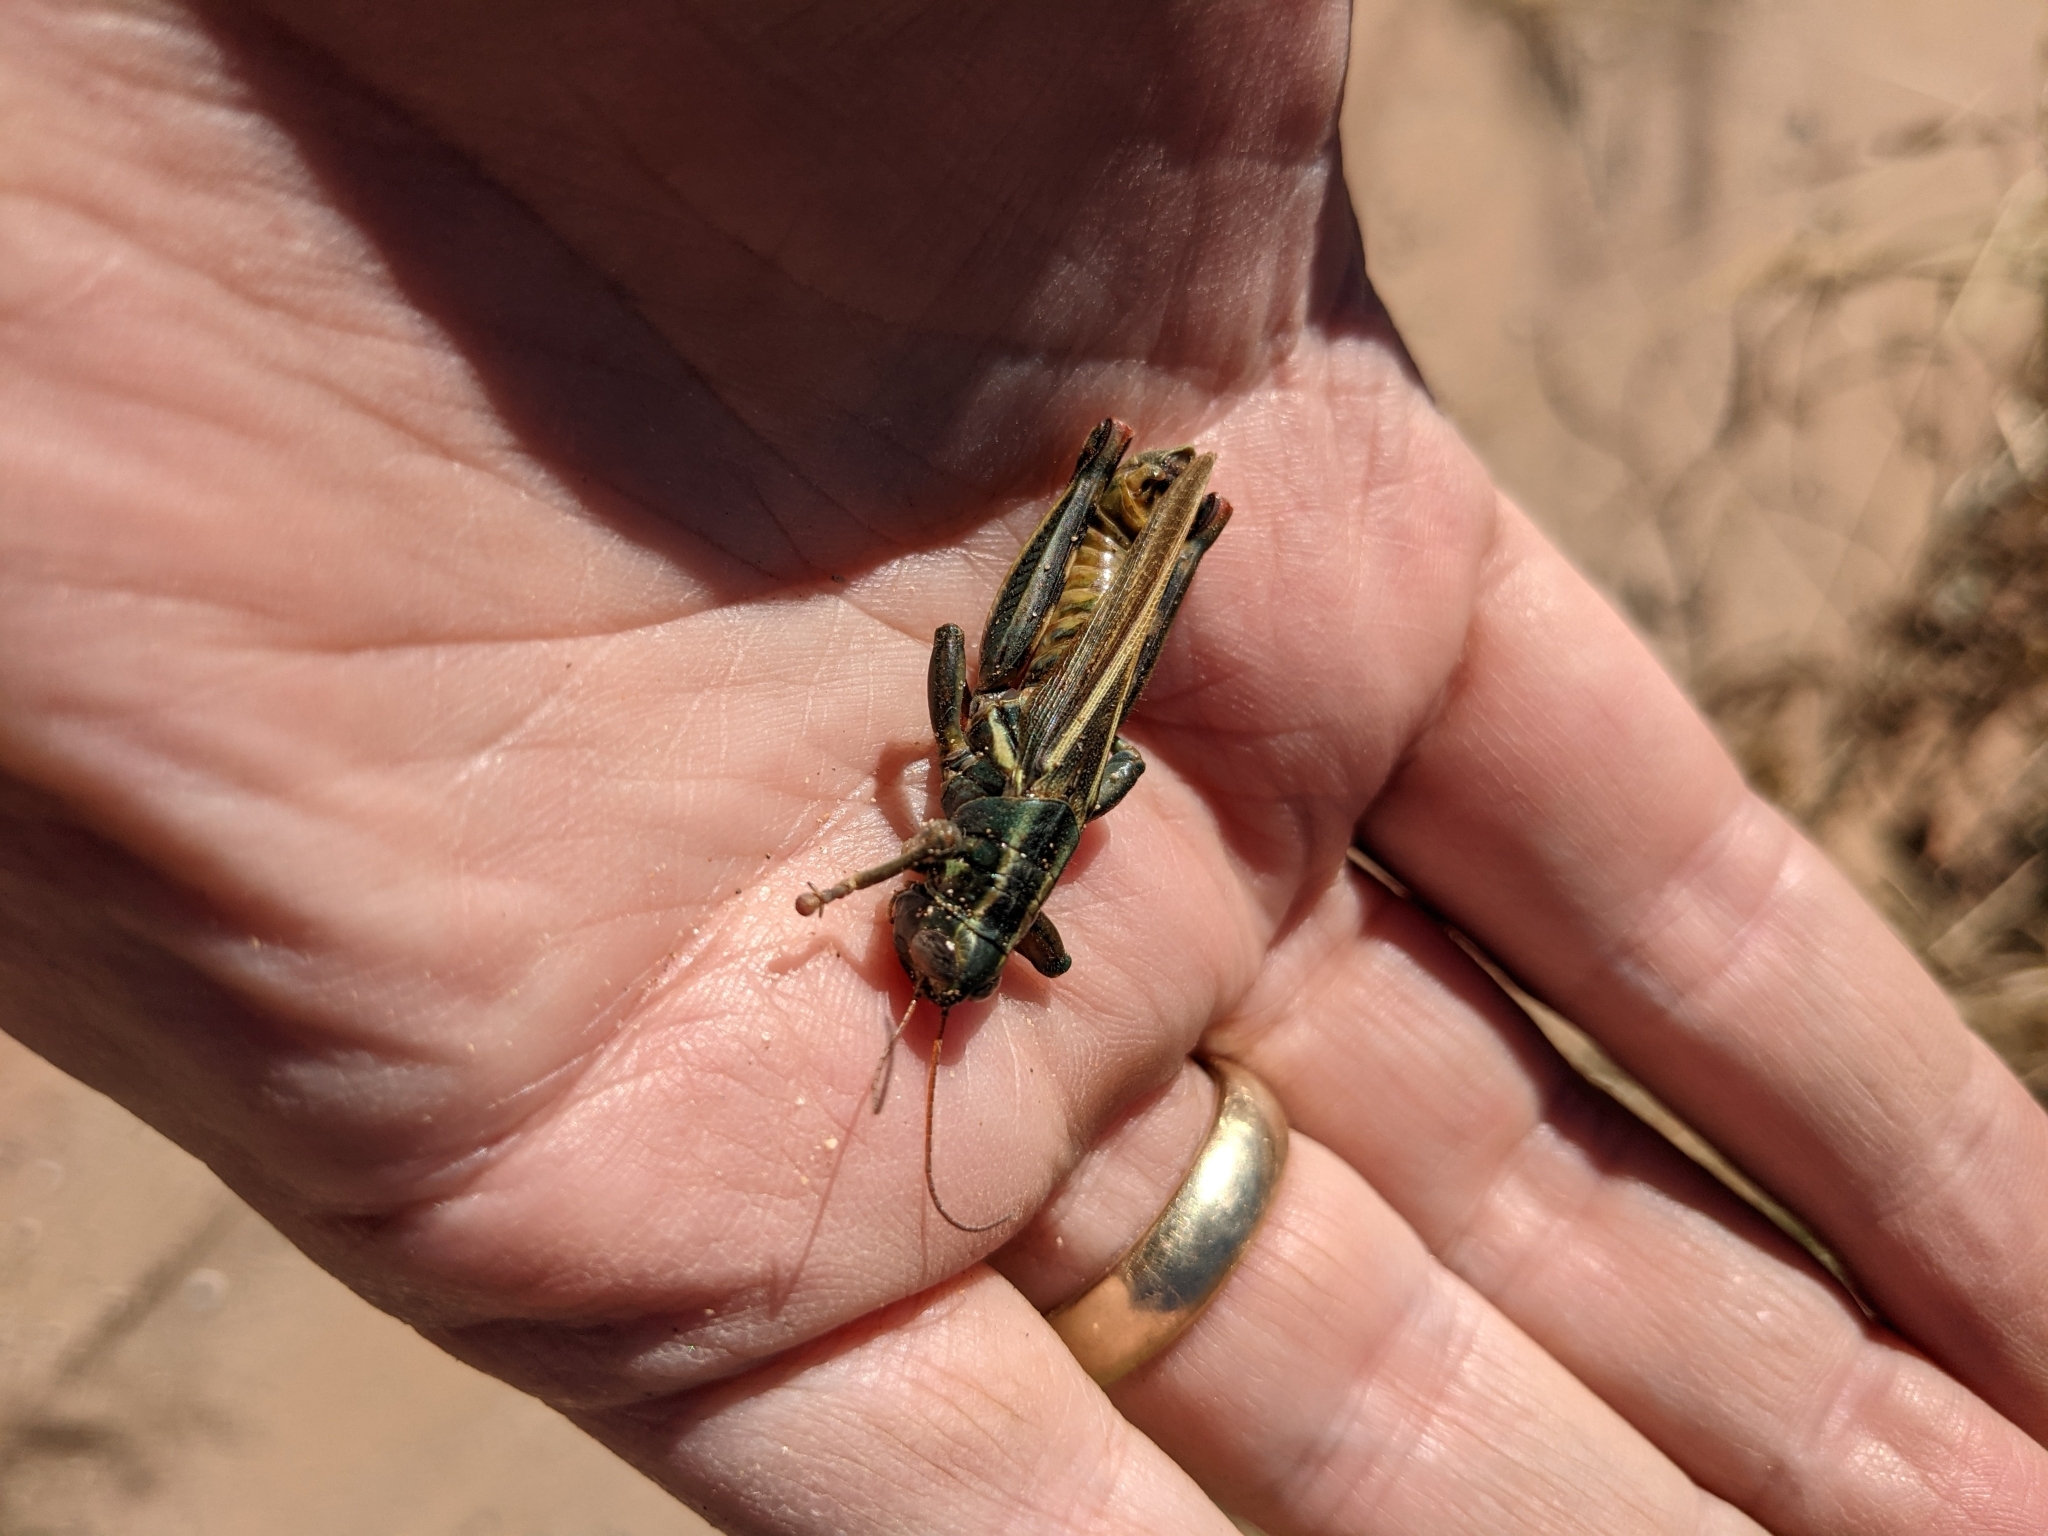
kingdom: Animalia
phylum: Arthropoda
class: Insecta
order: Orthoptera
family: Acrididae
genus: Melanoplus
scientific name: Melanoplus thomasi
